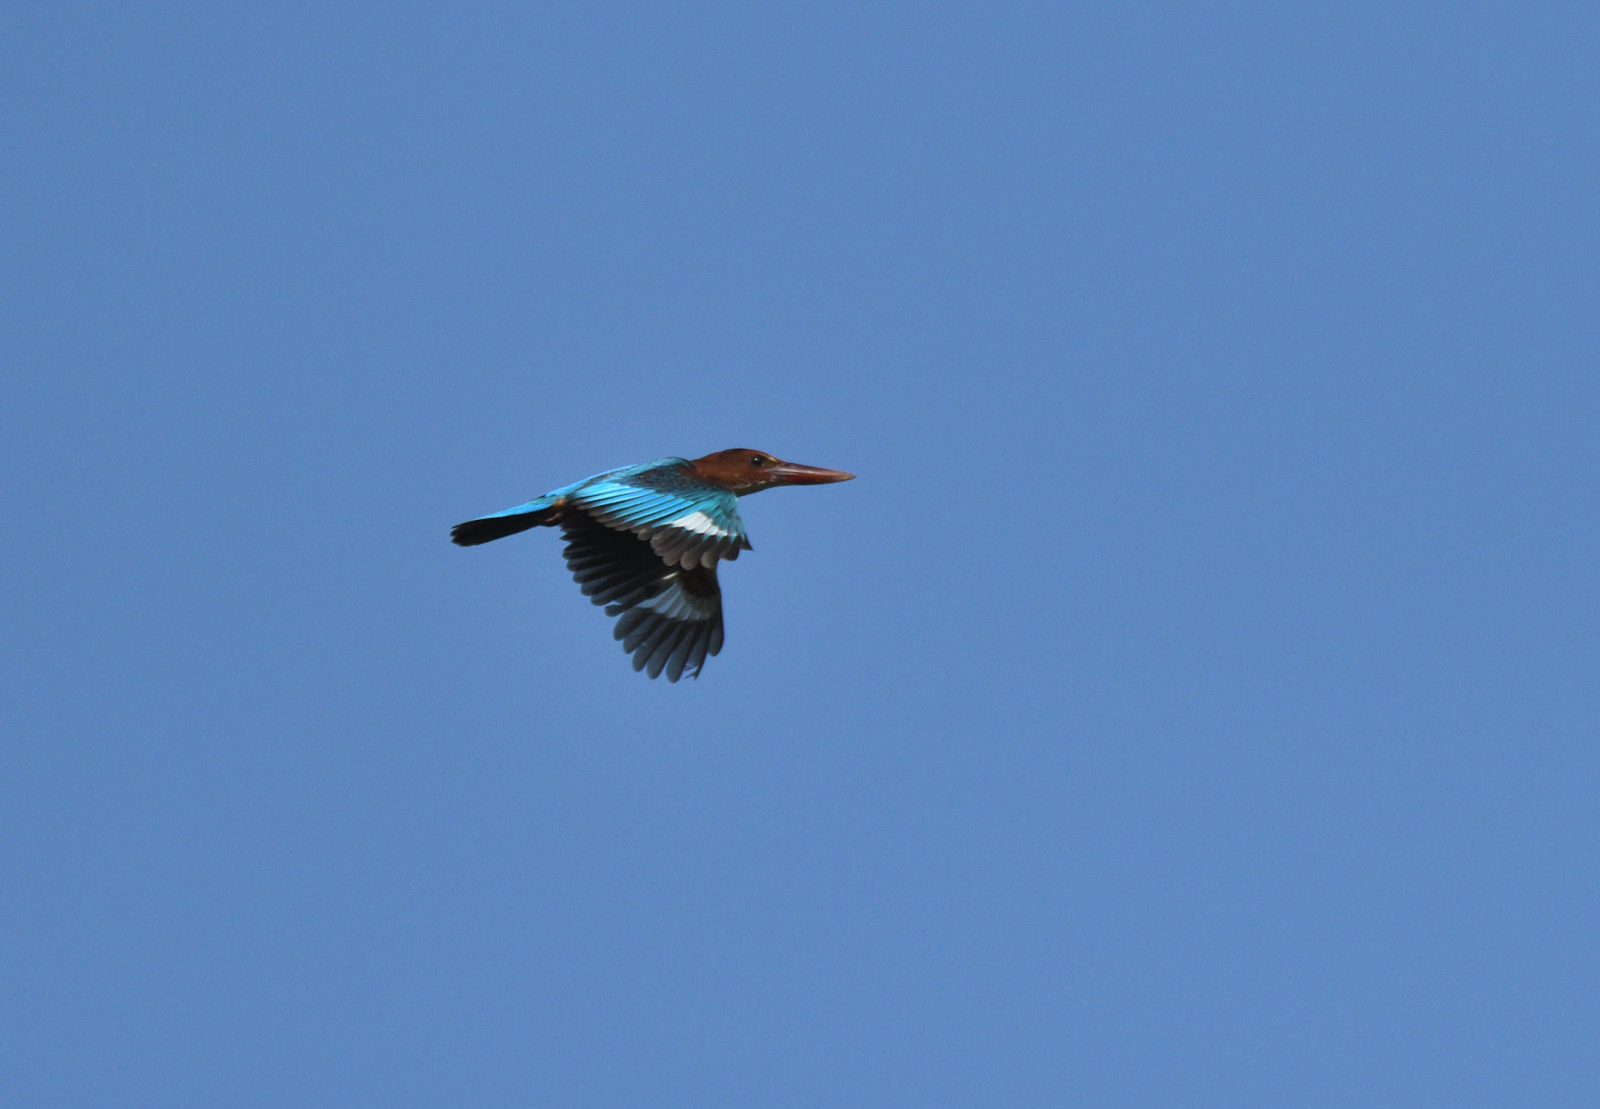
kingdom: Animalia
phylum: Chordata
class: Aves
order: Coraciiformes
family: Alcedinidae
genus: Halcyon
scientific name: Halcyon smyrnensis
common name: White-throated kingfisher
